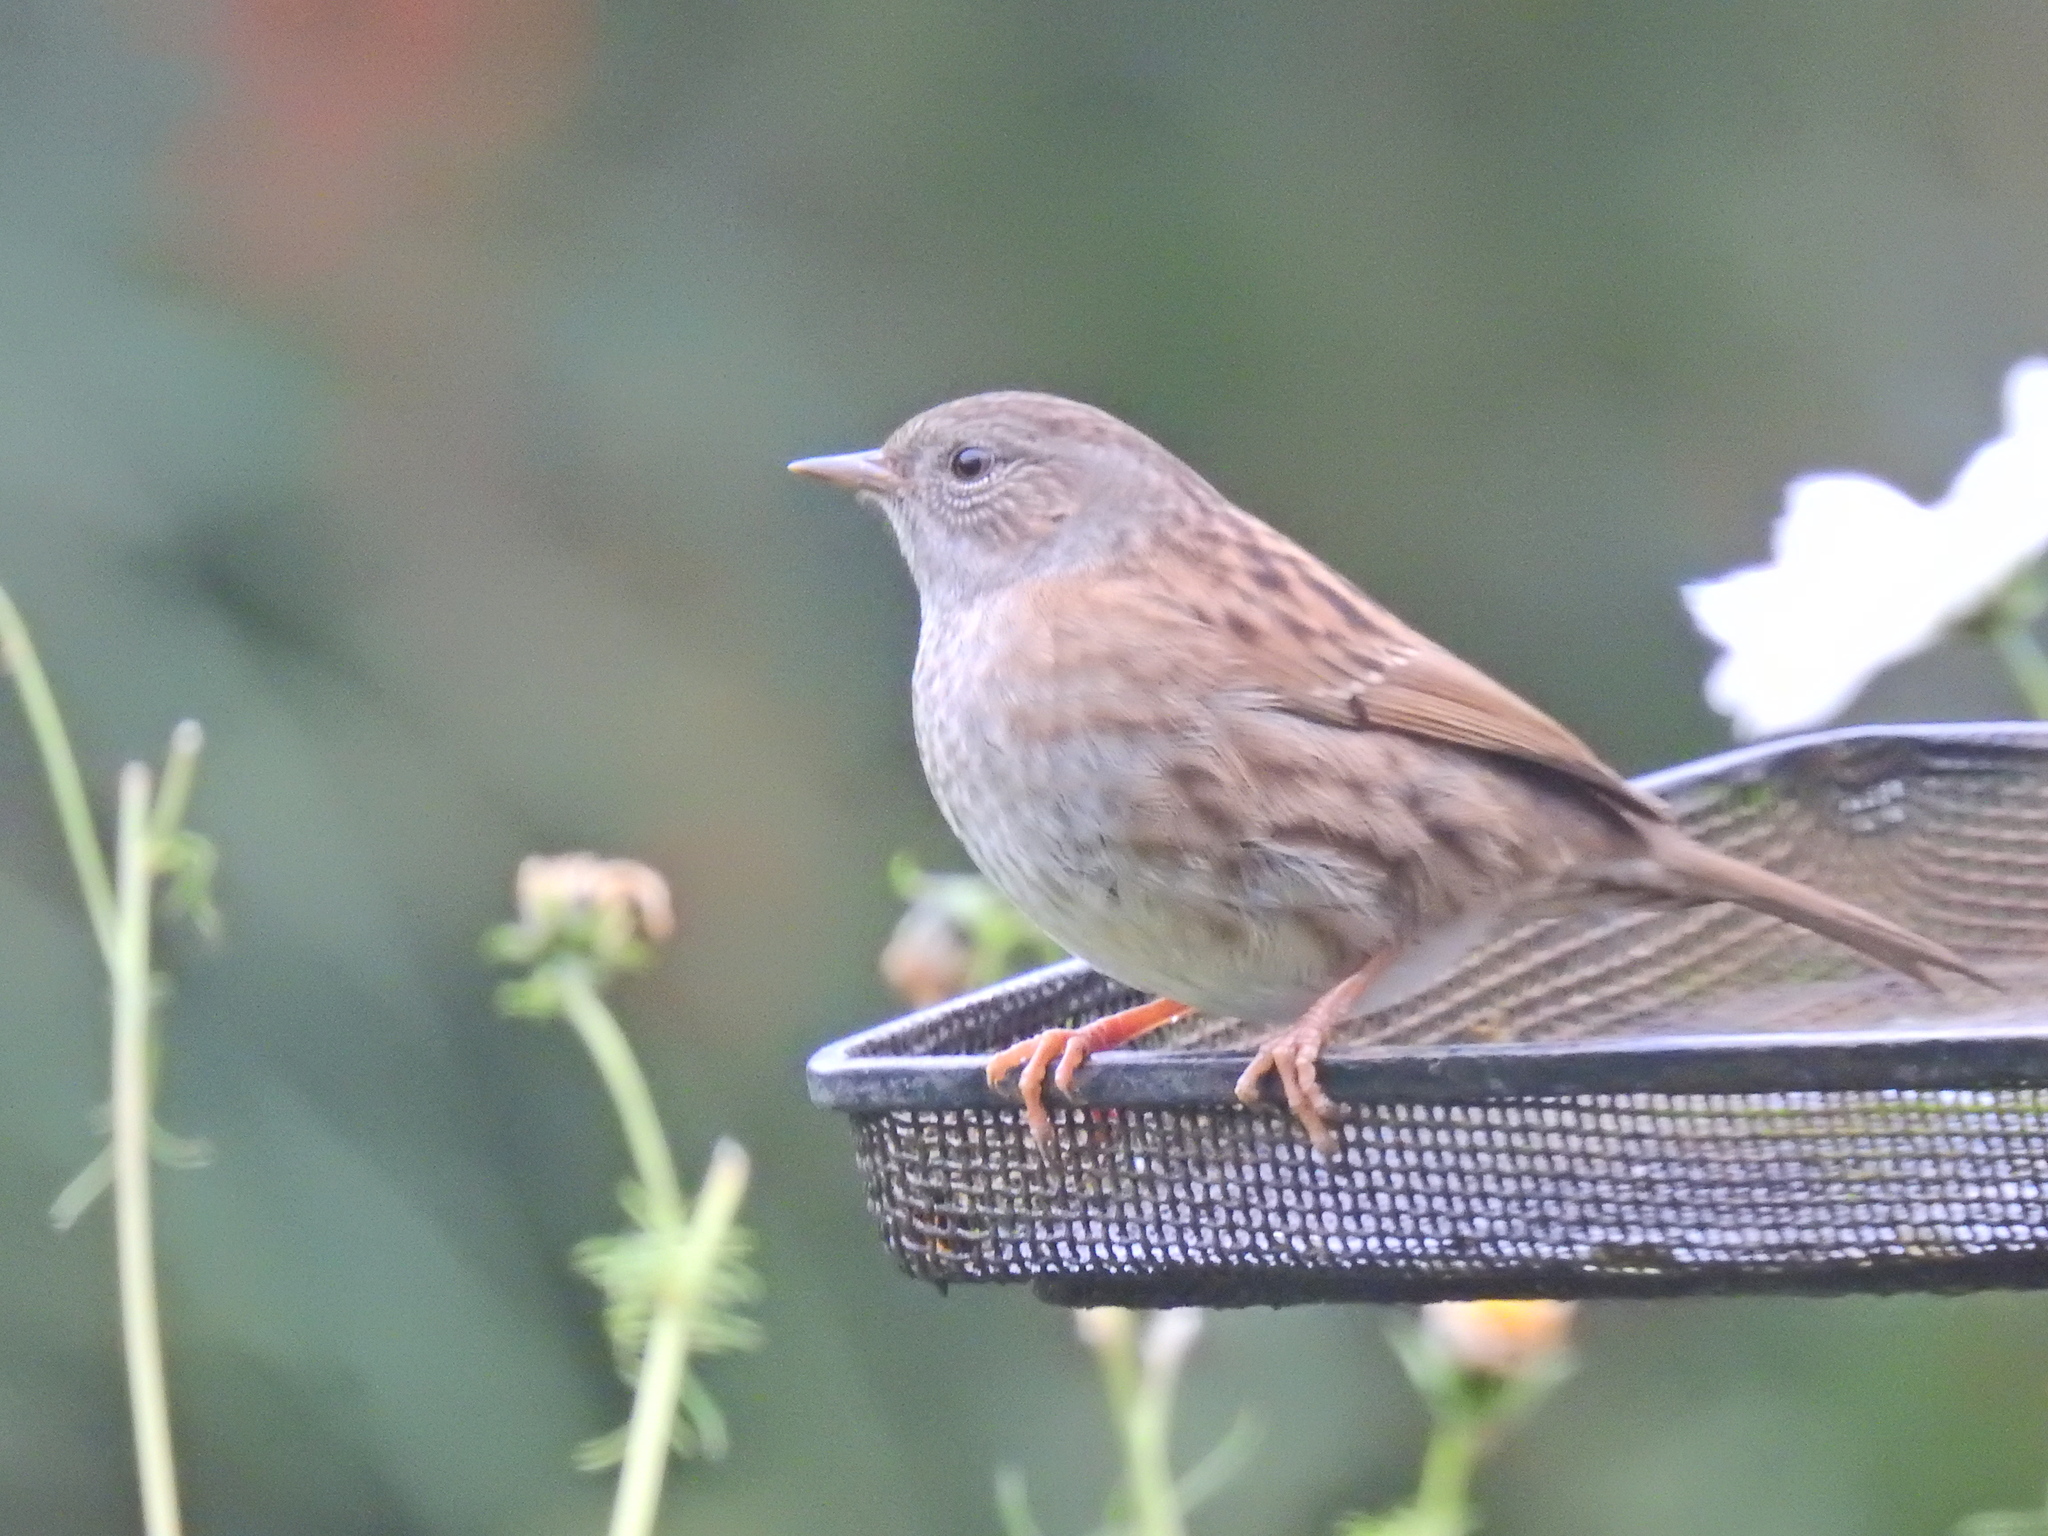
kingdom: Animalia
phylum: Chordata
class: Aves
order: Passeriformes
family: Prunellidae
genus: Prunella
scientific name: Prunella modularis
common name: Dunnock
